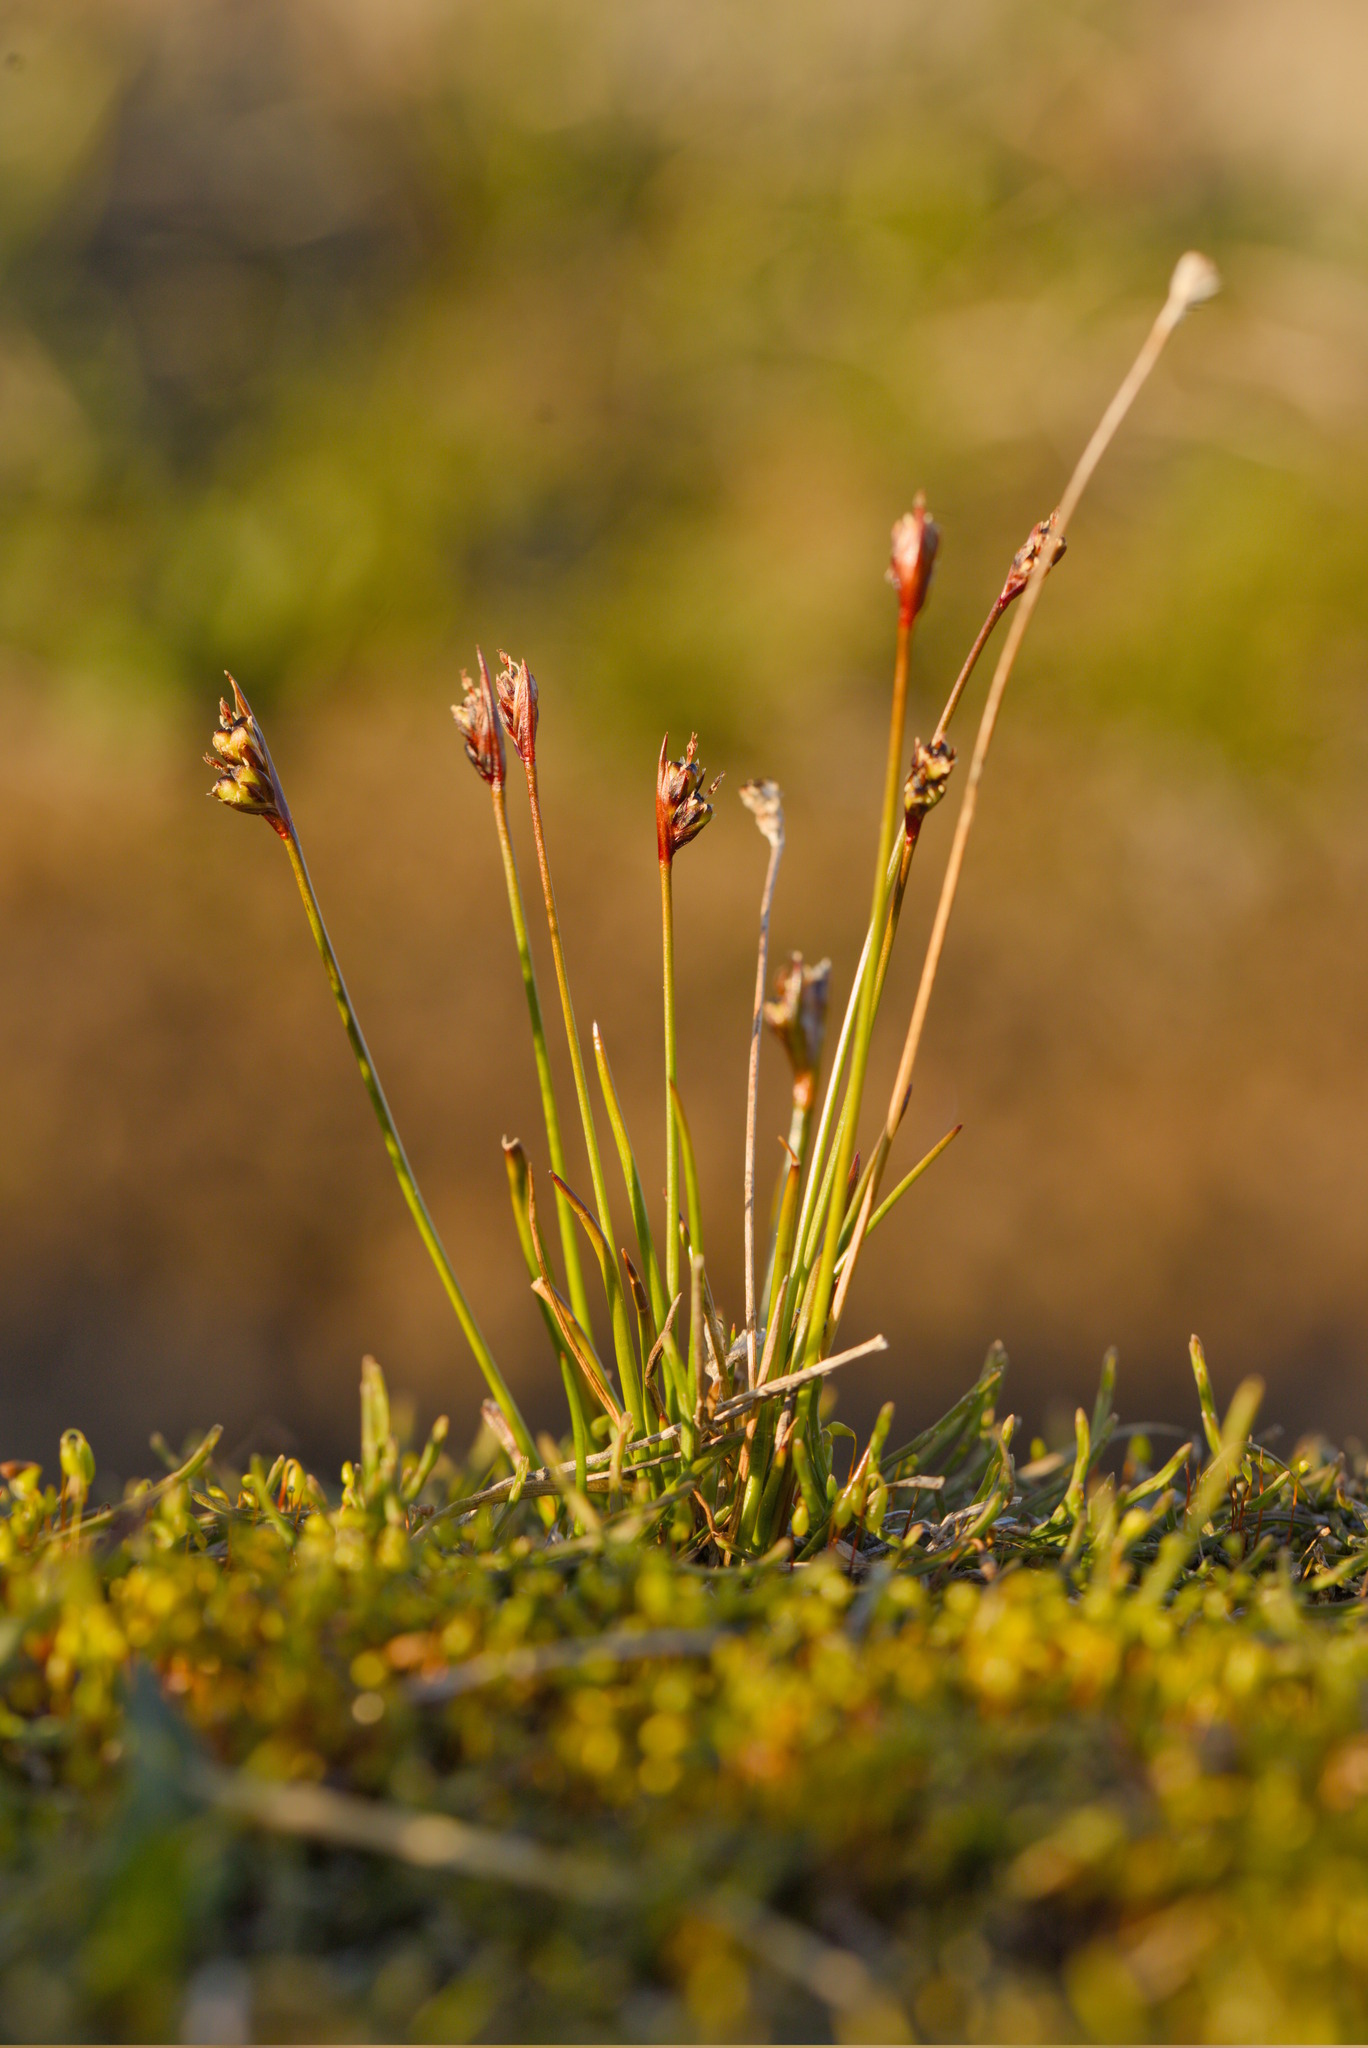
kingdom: Plantae
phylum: Tracheophyta
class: Liliopsida
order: Poales
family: Juncaceae
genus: Juncus
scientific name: Juncus biglumis
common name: Two-flowered rush
